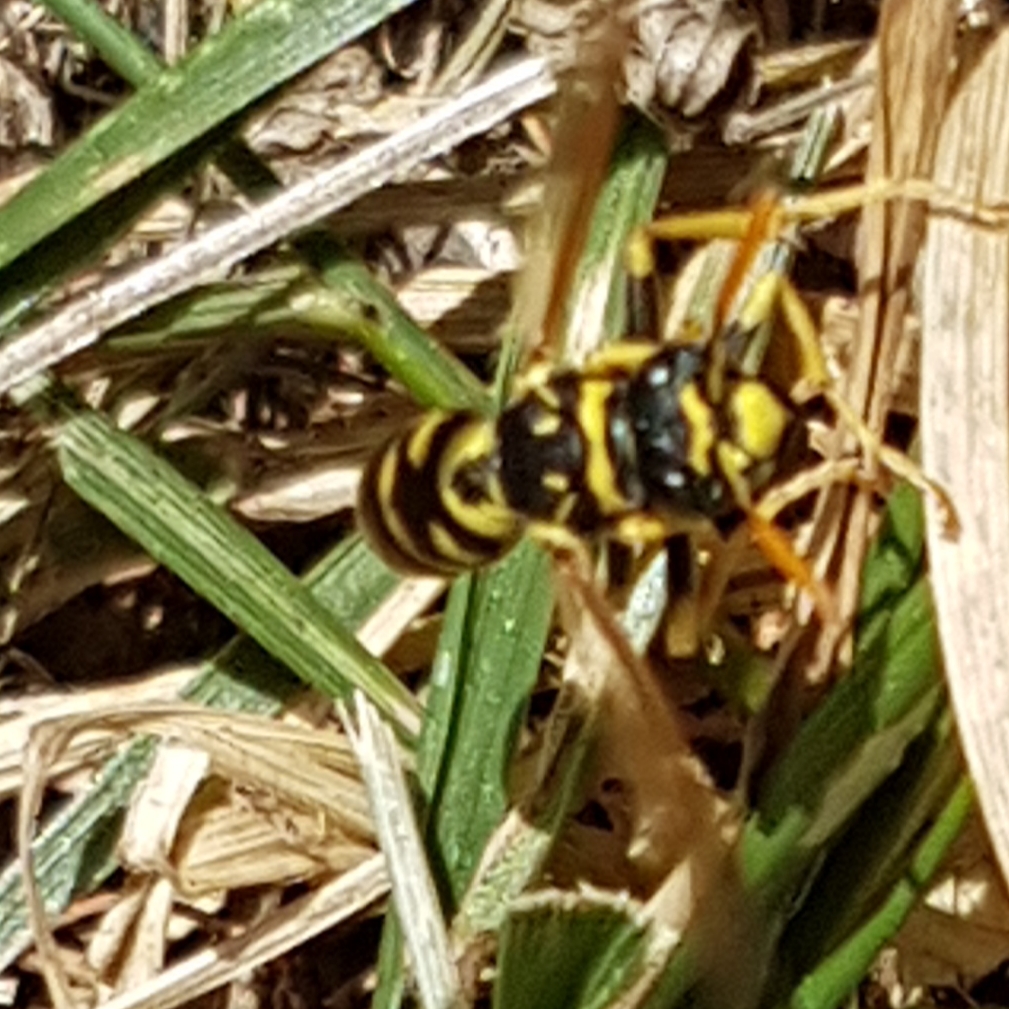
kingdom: Animalia
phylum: Arthropoda
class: Insecta
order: Hymenoptera
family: Eumenidae
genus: Polistes
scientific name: Polistes dominula
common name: Paper wasp
